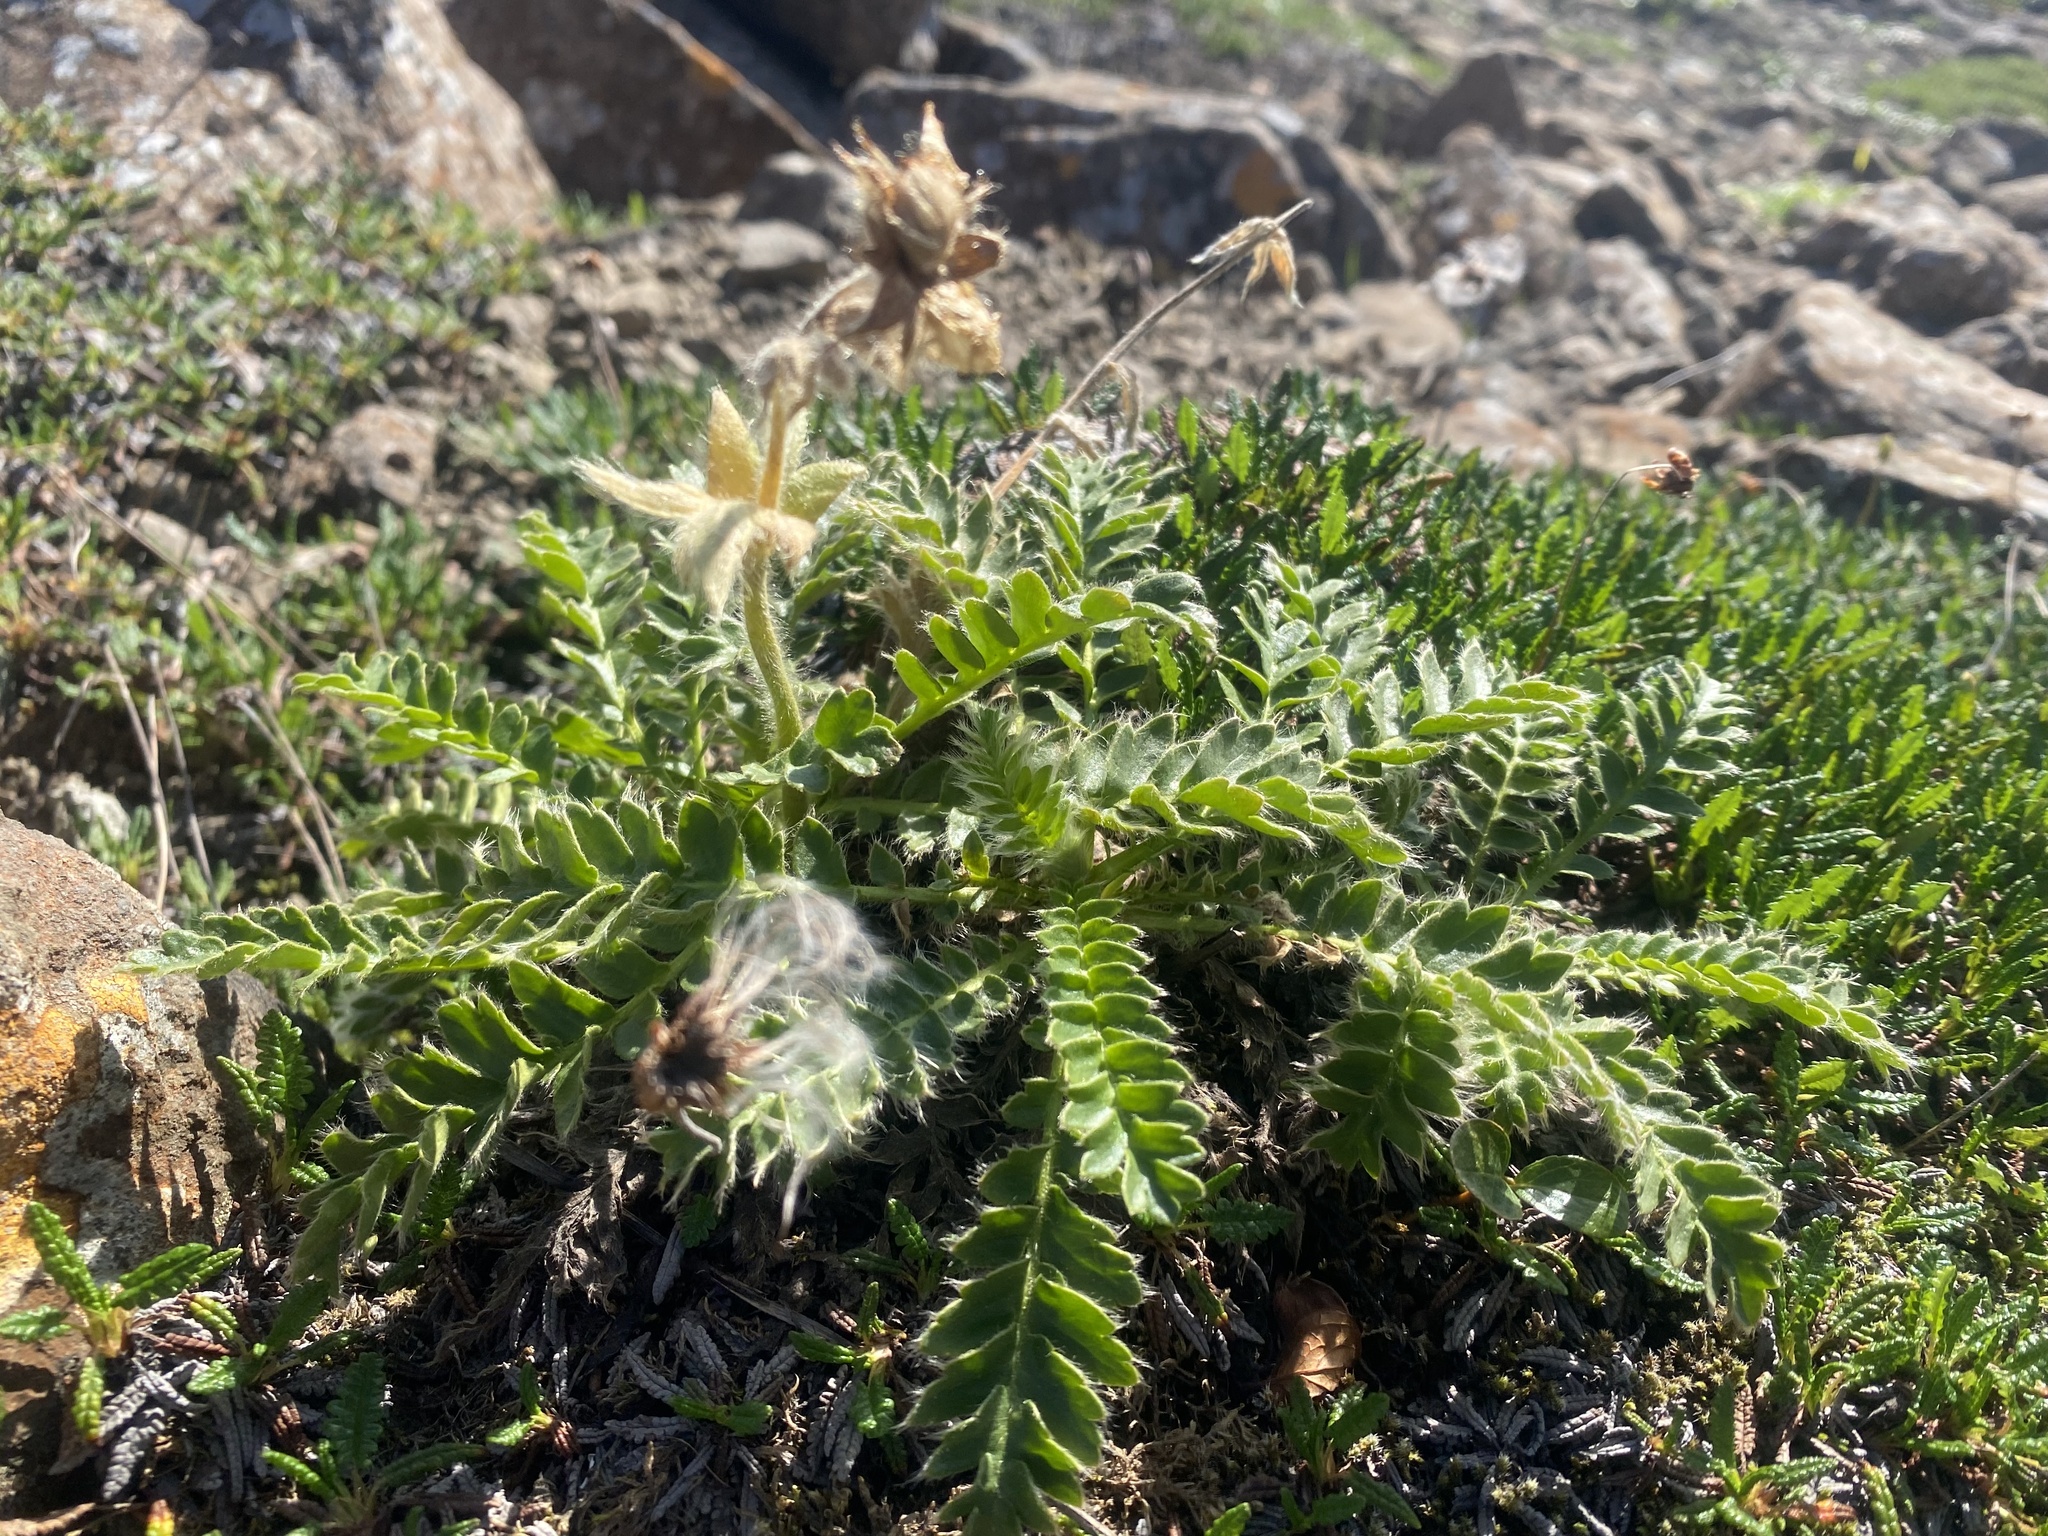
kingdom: Plantae
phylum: Tracheophyta
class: Magnoliopsida
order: Rosales
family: Rosaceae
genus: Geum
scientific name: Geum glaciale
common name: Glacier avens
